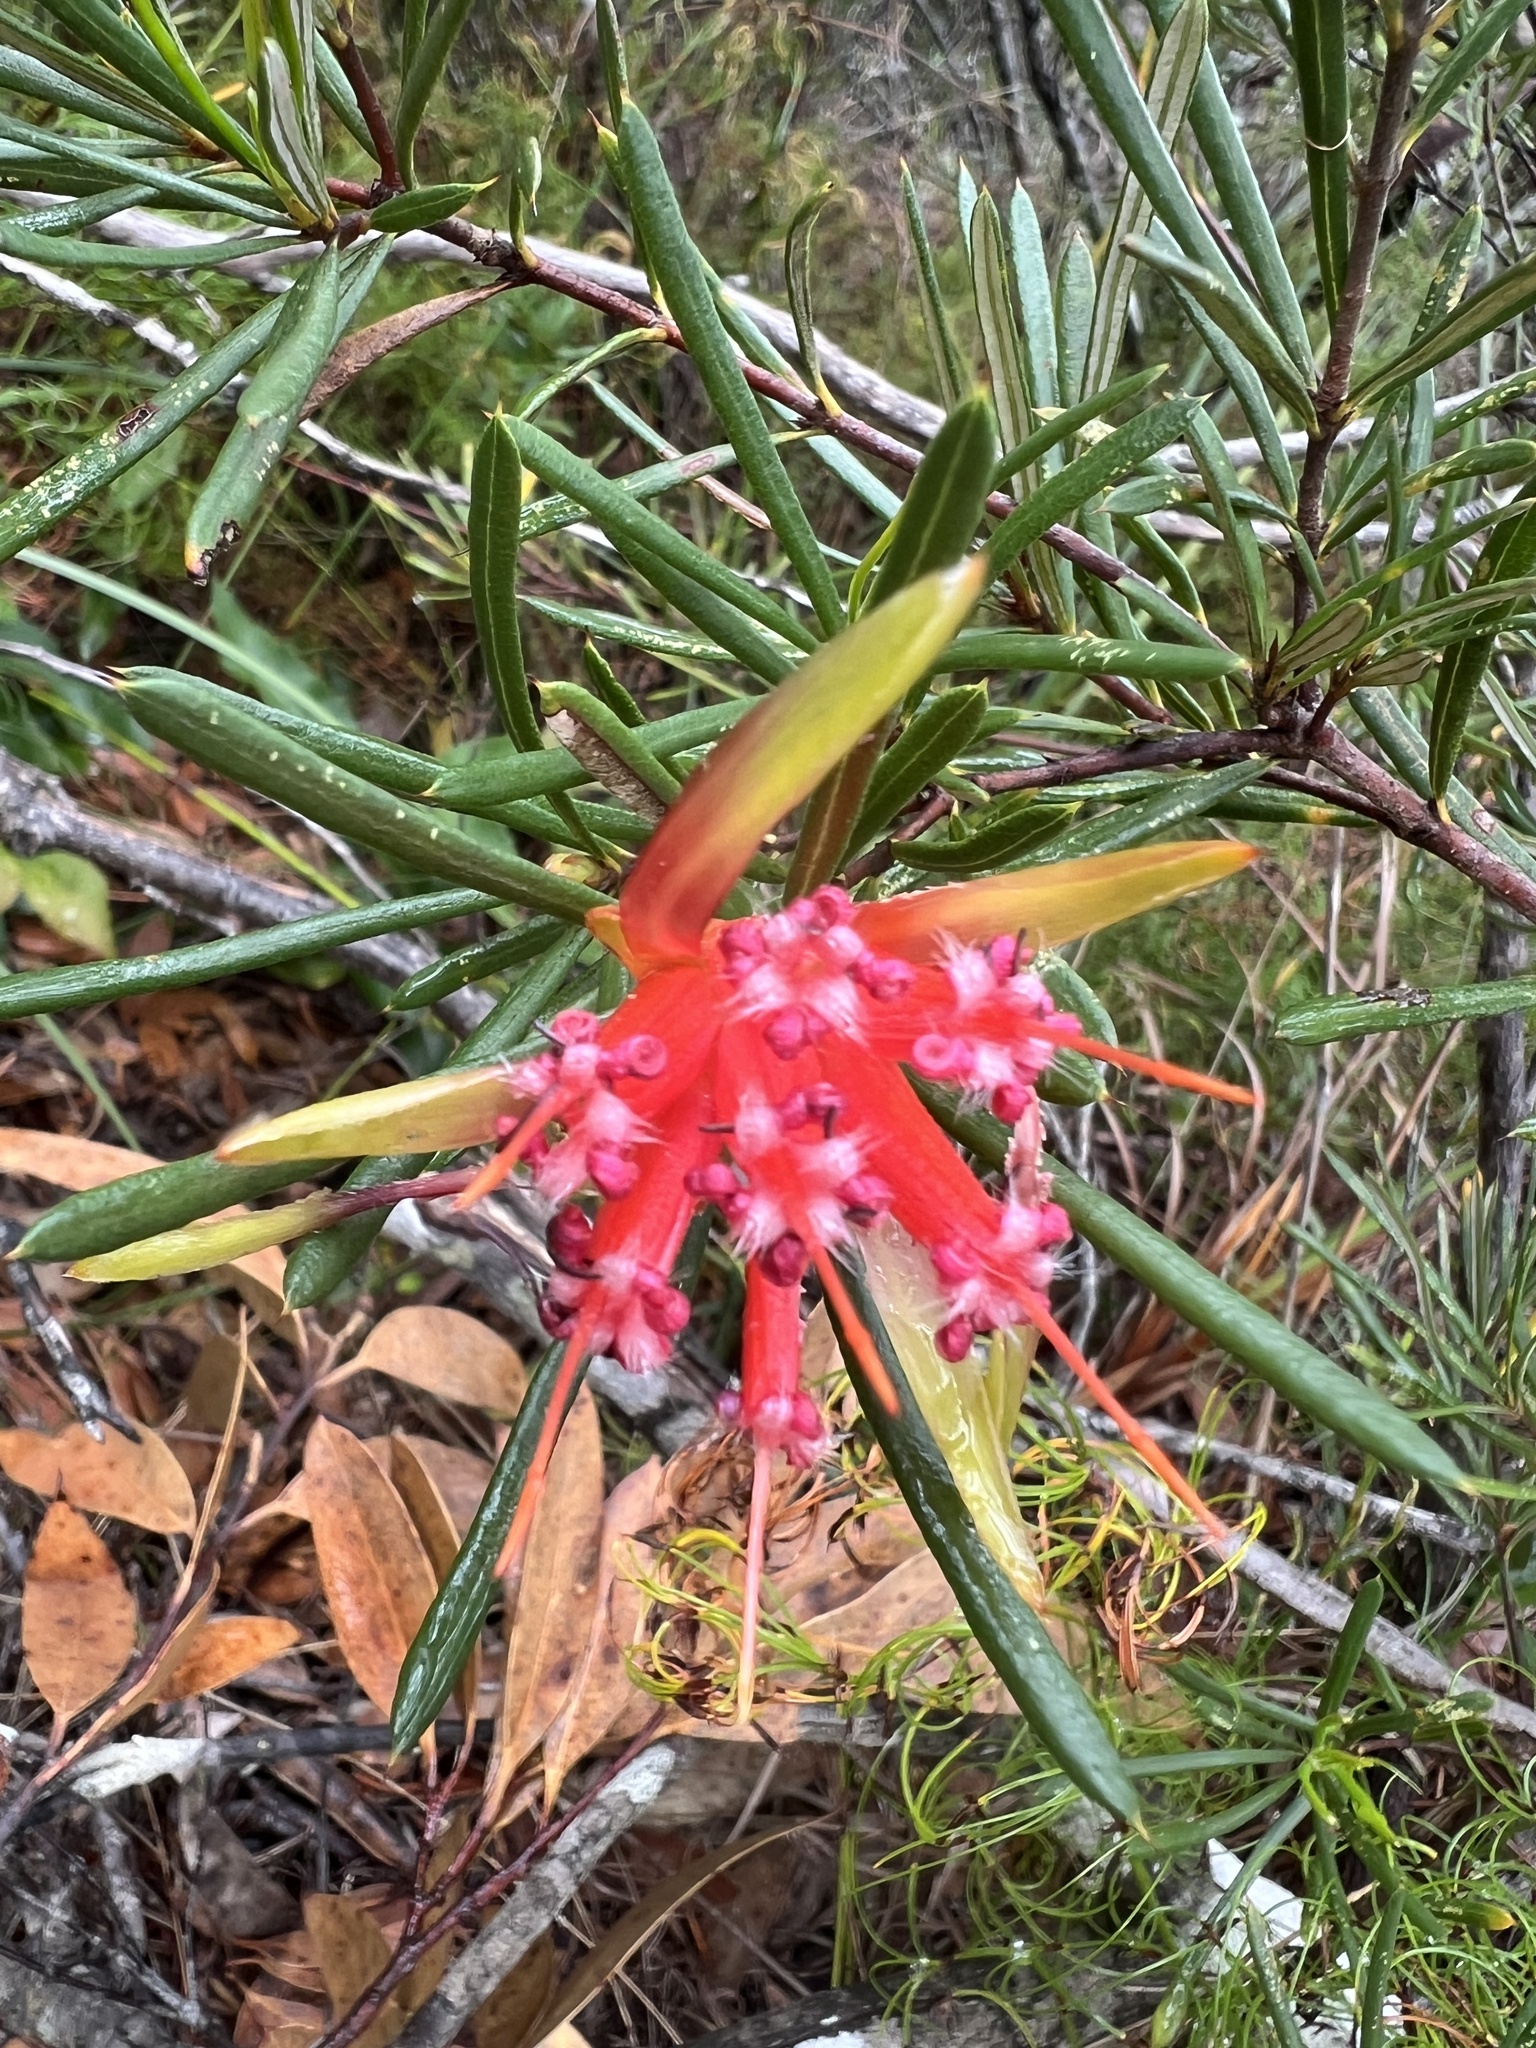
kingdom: Plantae
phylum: Tracheophyta
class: Magnoliopsida
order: Proteales
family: Proteaceae
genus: Lambertia
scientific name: Lambertia formosa
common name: Mountain-devil
